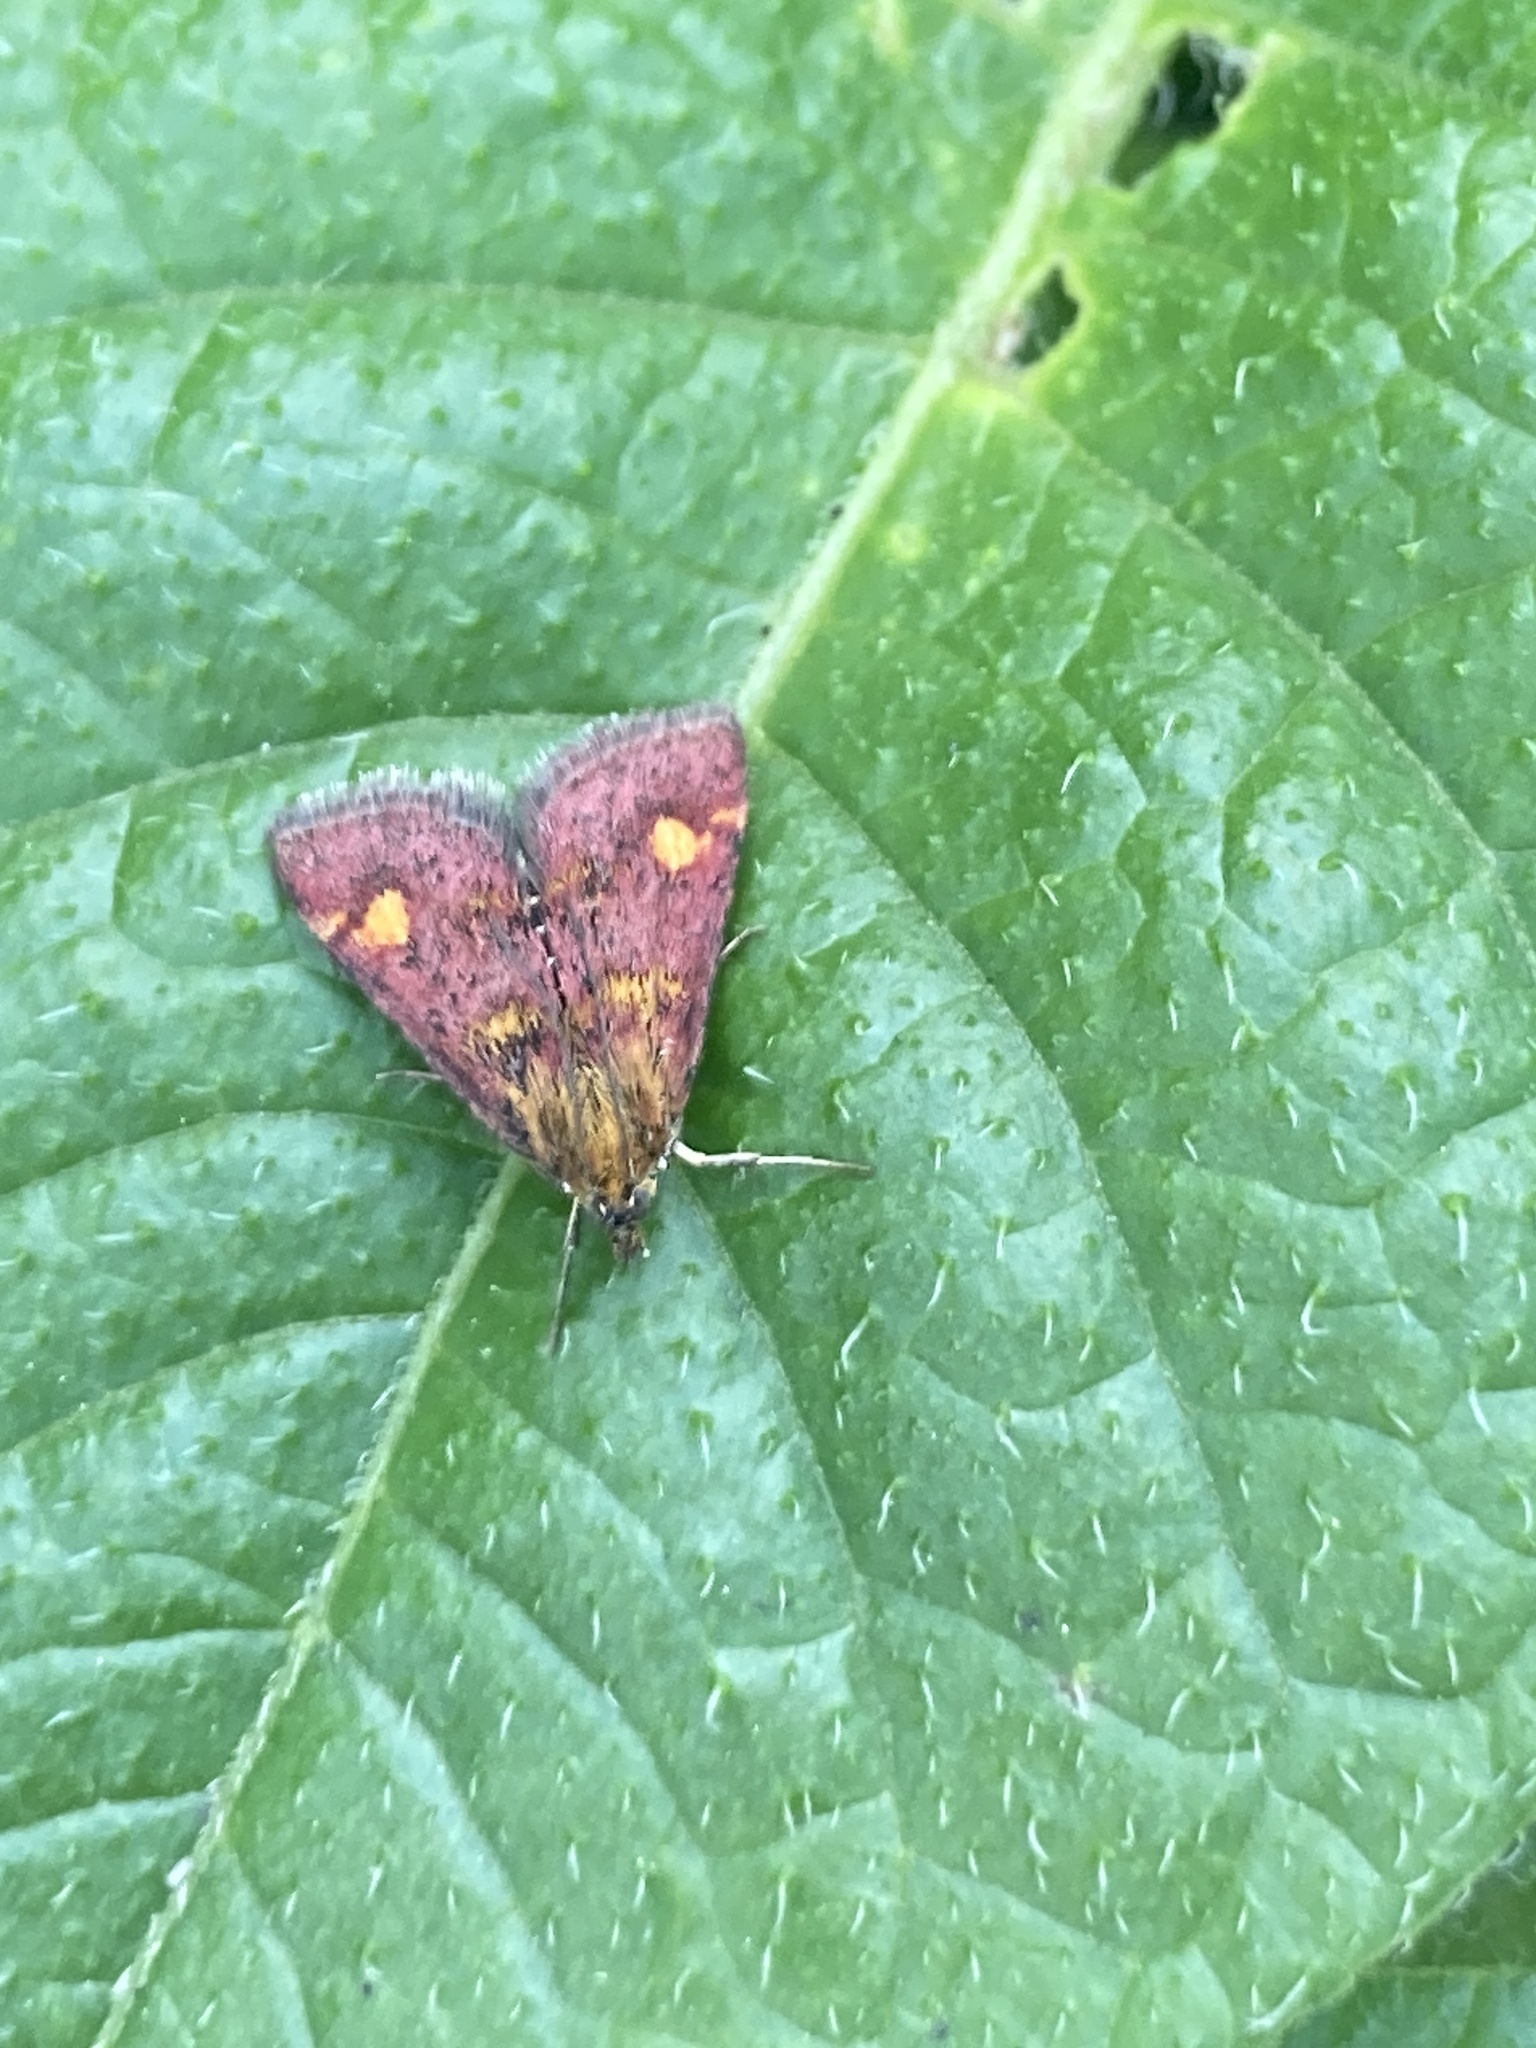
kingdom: Animalia
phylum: Arthropoda
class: Insecta
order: Lepidoptera
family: Crambidae
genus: Pyrausta
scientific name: Pyrausta aurata
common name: Small purple & gold
